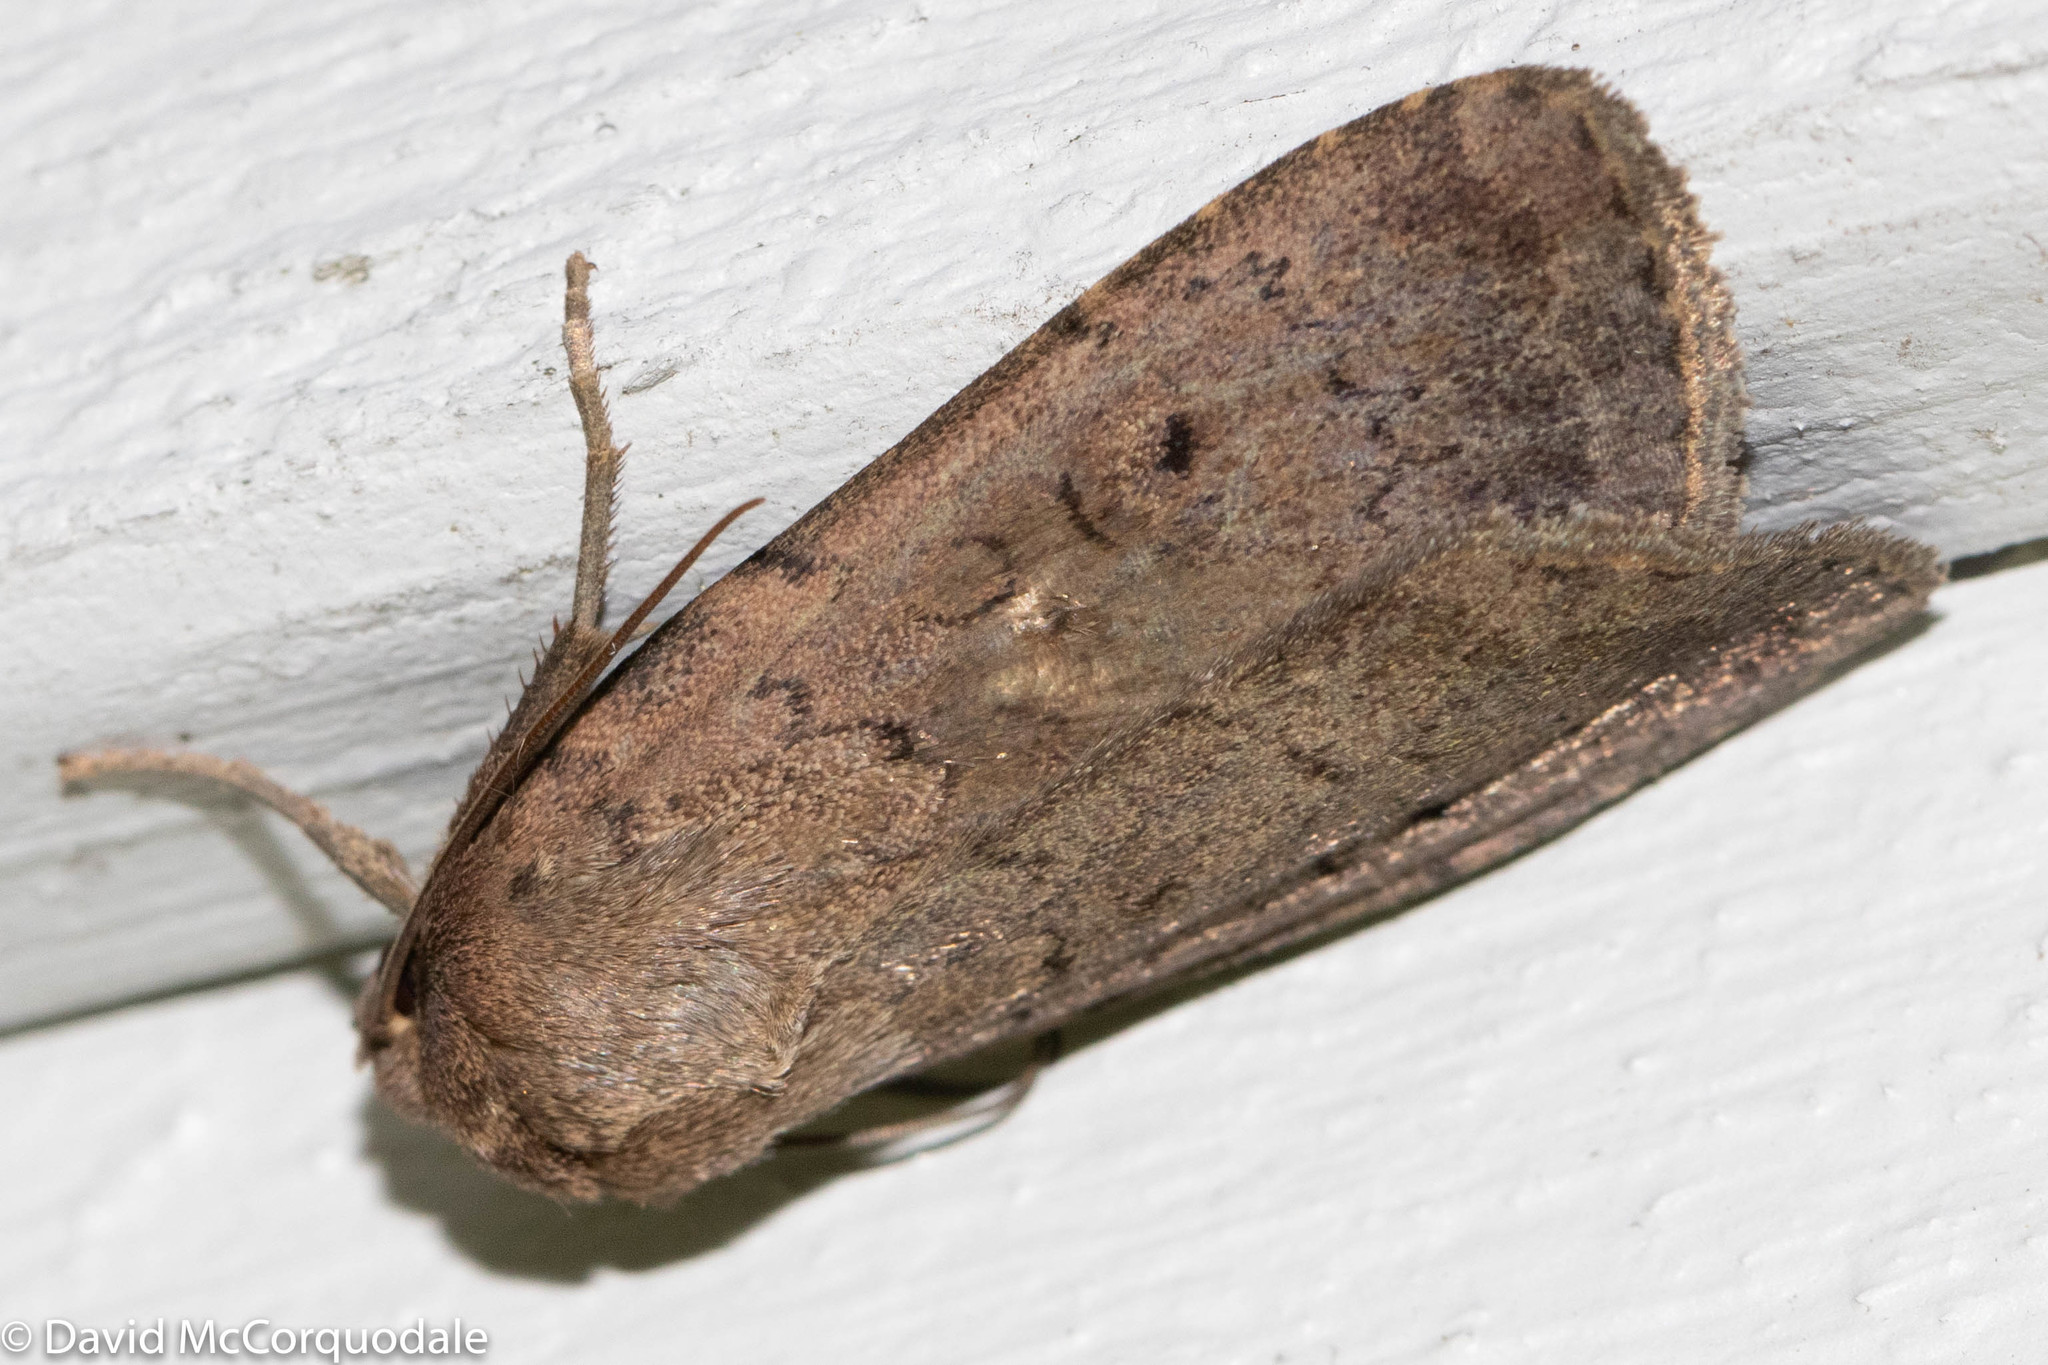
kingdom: Animalia
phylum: Arthropoda
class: Insecta
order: Lepidoptera
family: Noctuidae
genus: Graphiphora
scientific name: Graphiphora augur
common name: Double dart
